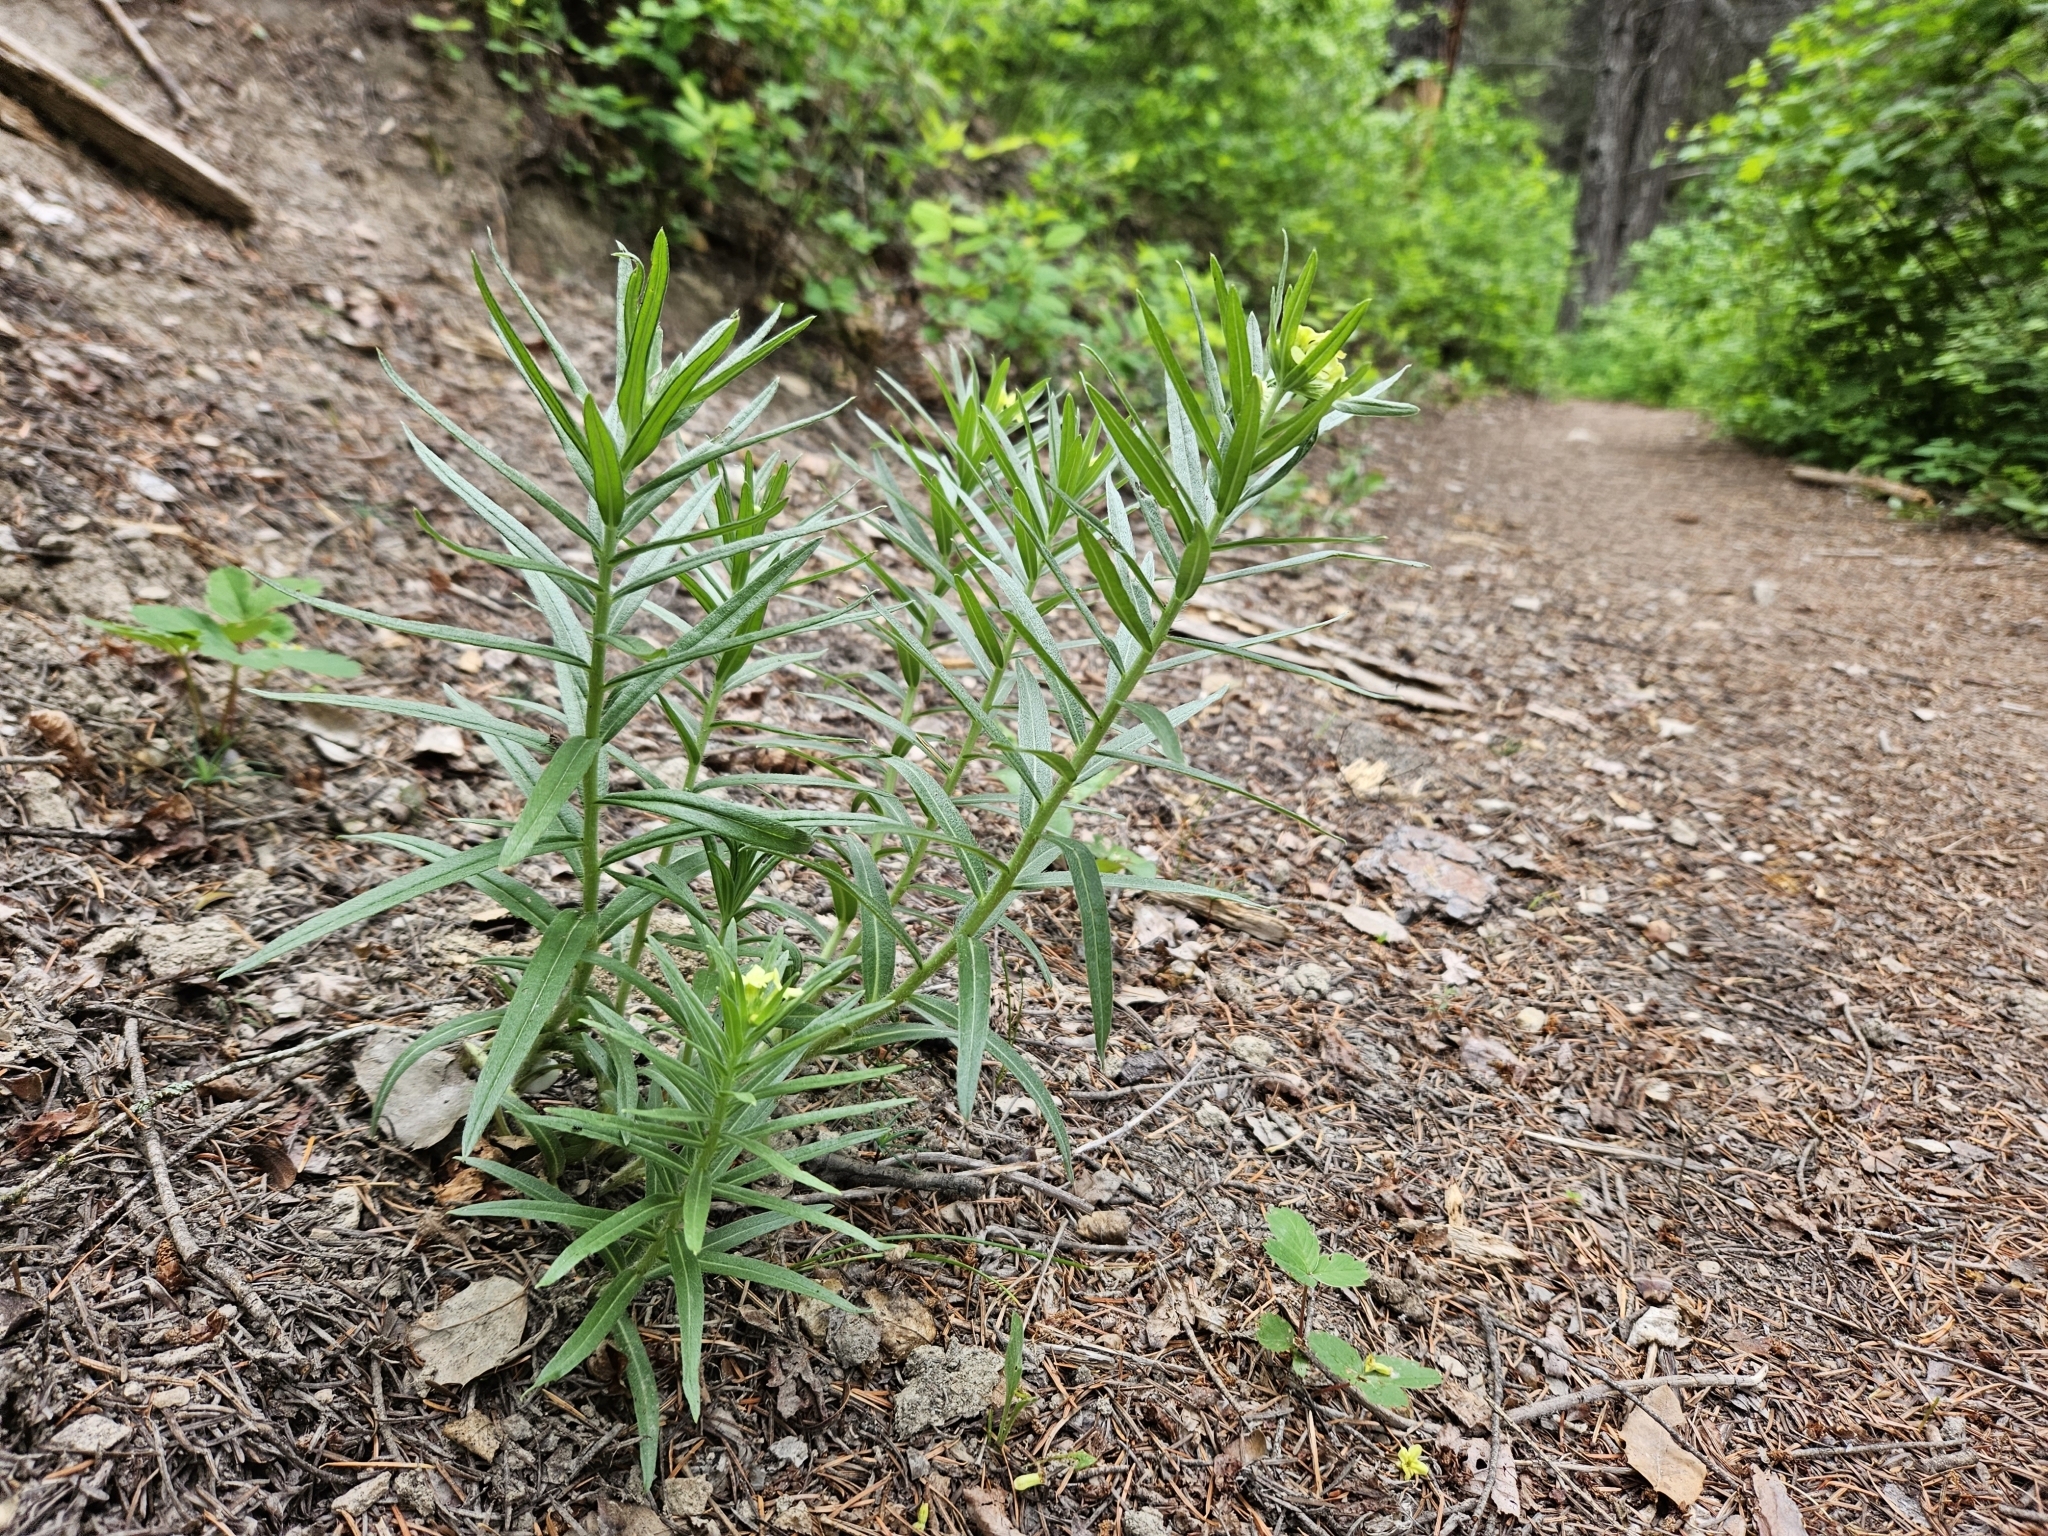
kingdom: Plantae
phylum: Tracheophyta
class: Magnoliopsida
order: Boraginales
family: Boraginaceae
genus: Lithospermum
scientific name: Lithospermum ruderale
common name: Western gromwell
